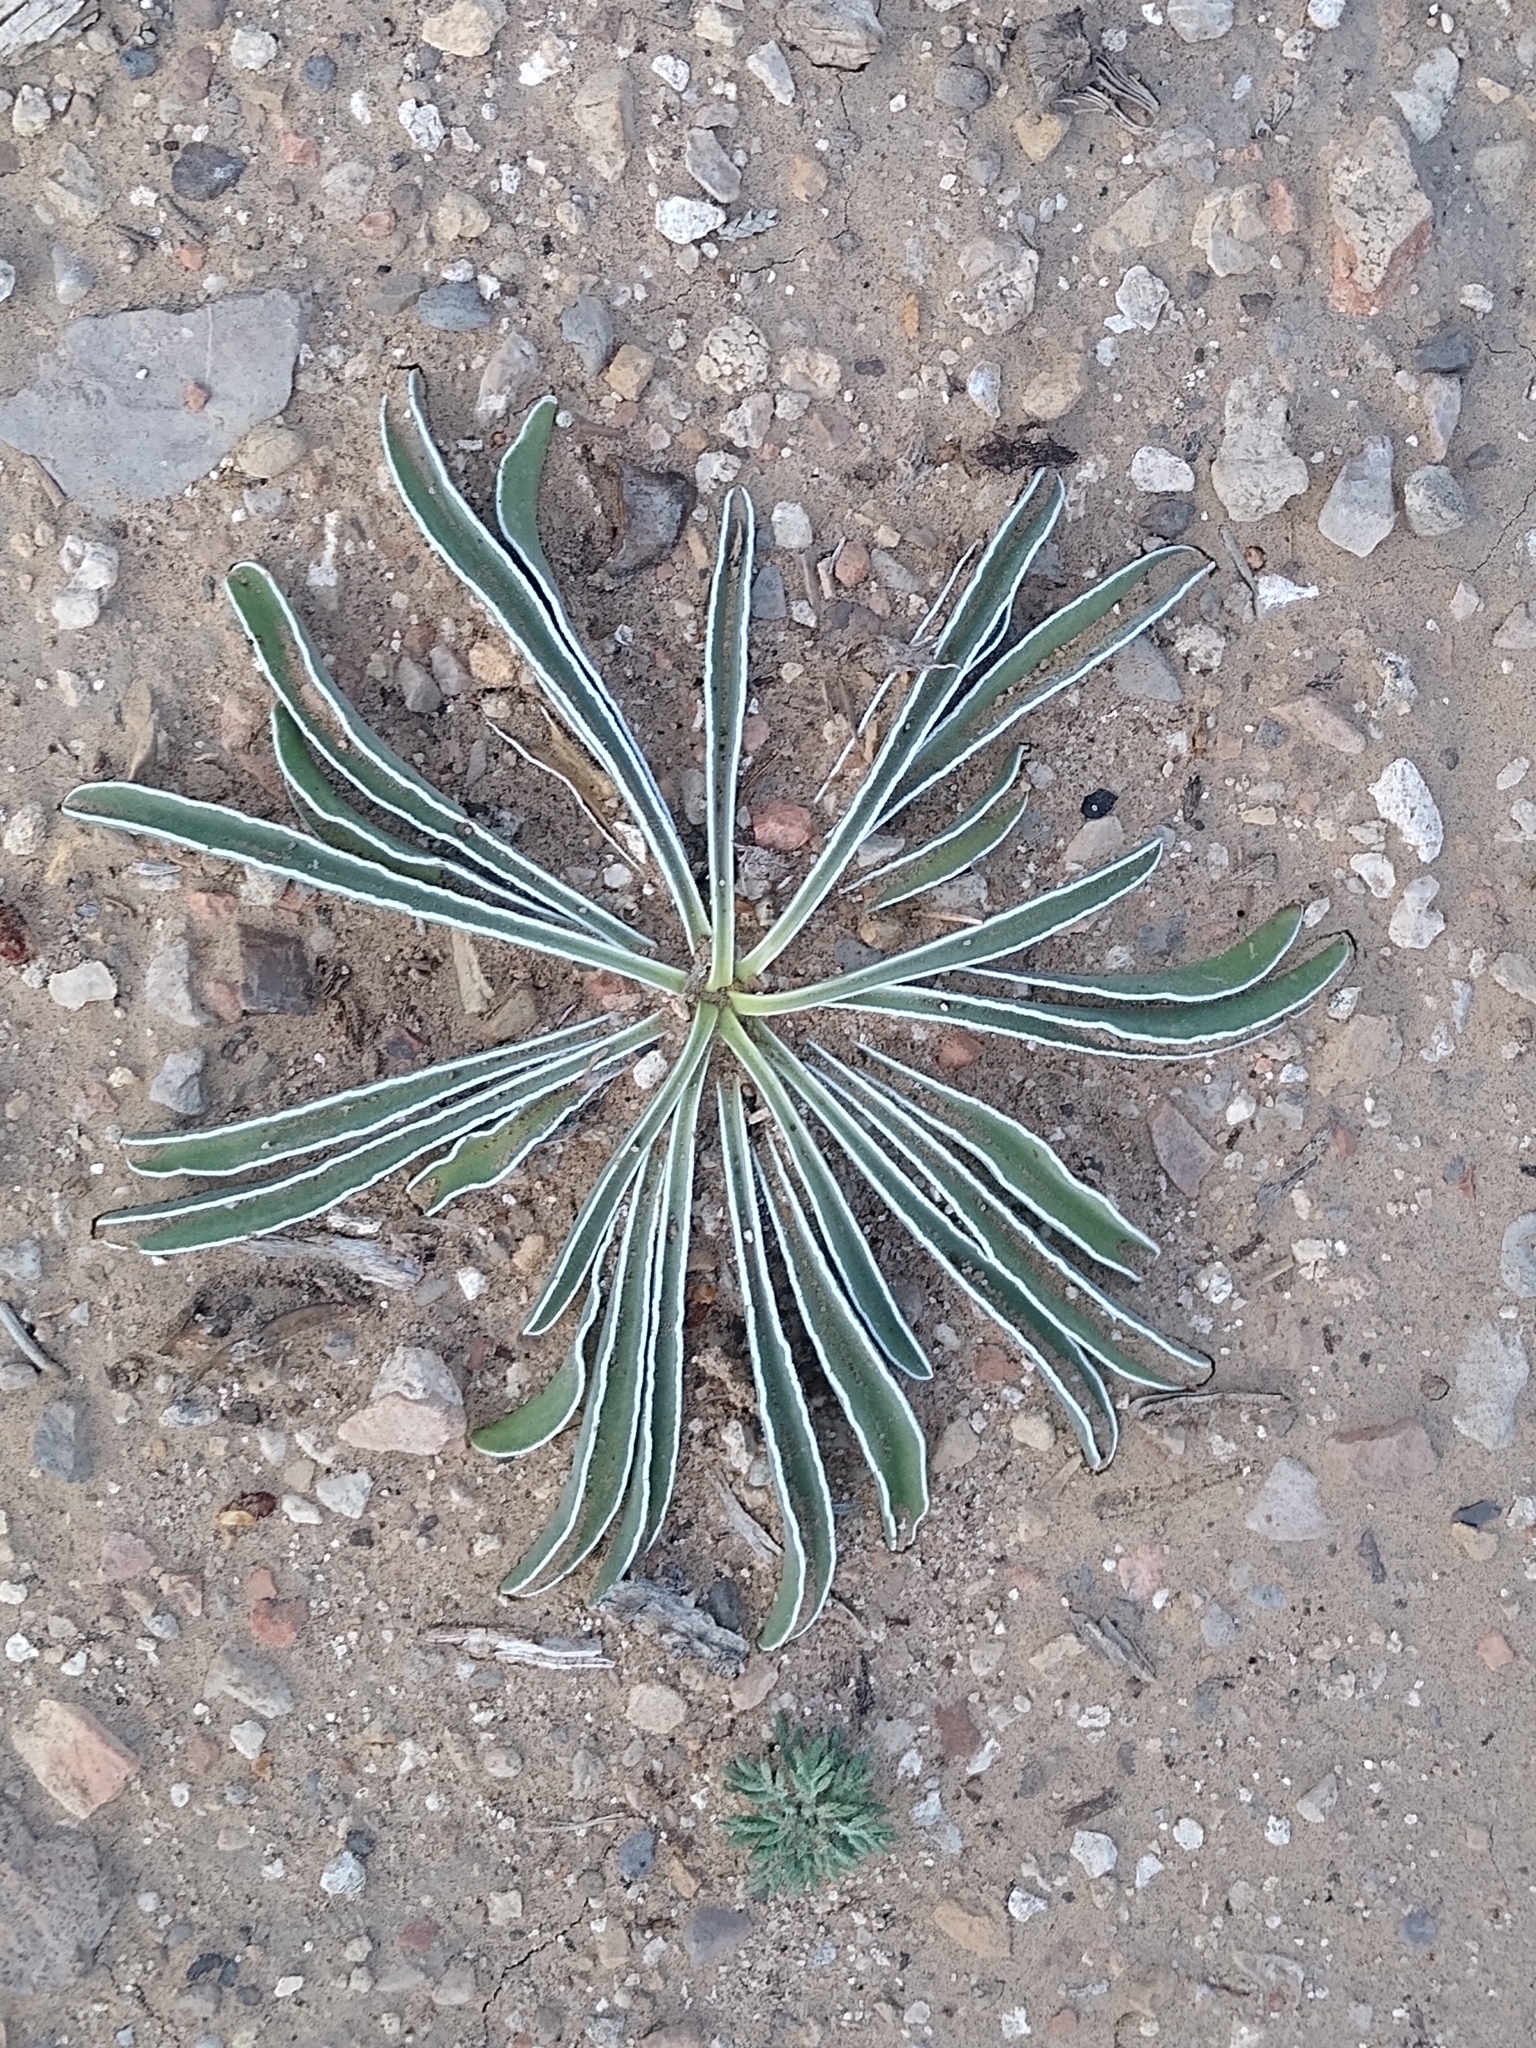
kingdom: Plantae
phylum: Tracheophyta
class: Magnoliopsida
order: Gentianales
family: Gentianaceae
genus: Frasera
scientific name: Frasera albomarginata
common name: Desert frasera
